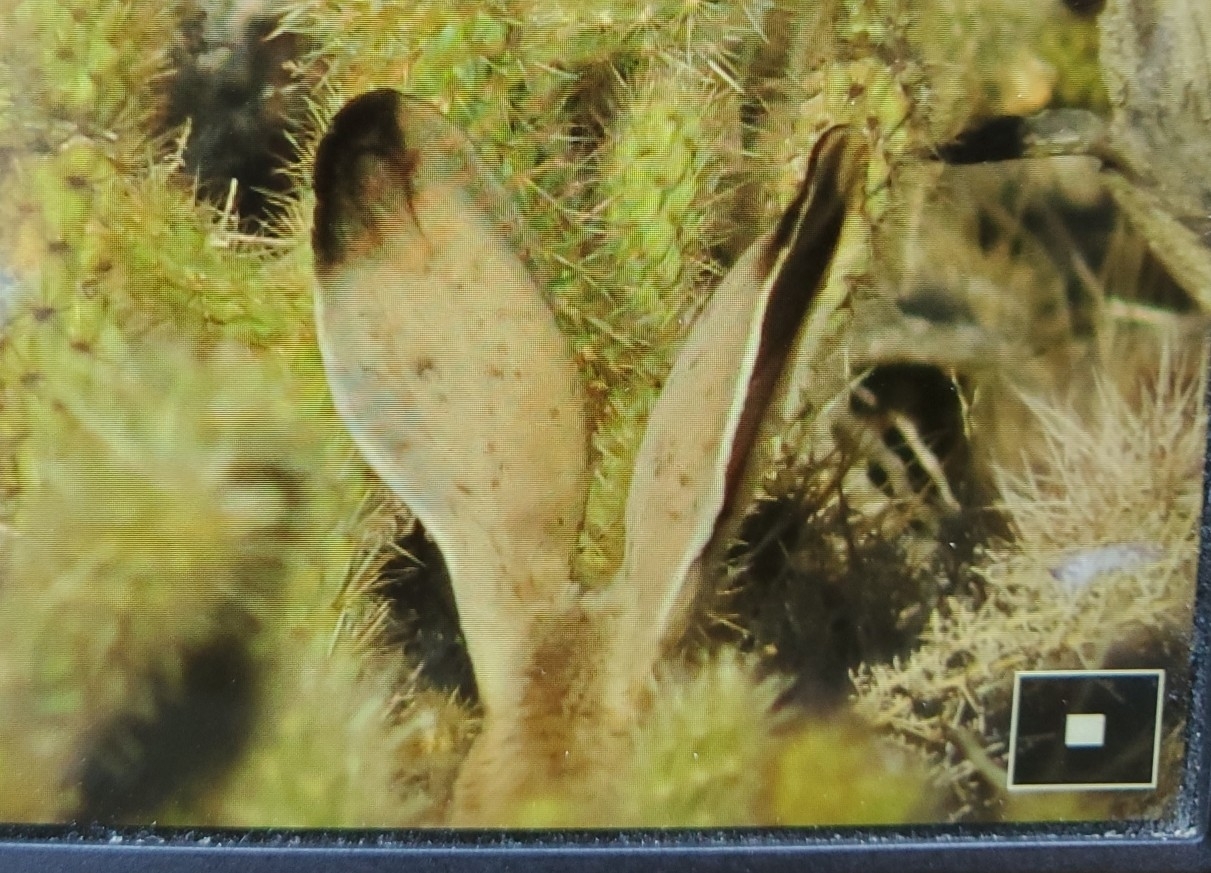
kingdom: Animalia
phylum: Chordata
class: Mammalia
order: Lagomorpha
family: Leporidae
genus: Lepus
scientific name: Lepus californicus
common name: Black-tailed jackrabbit
